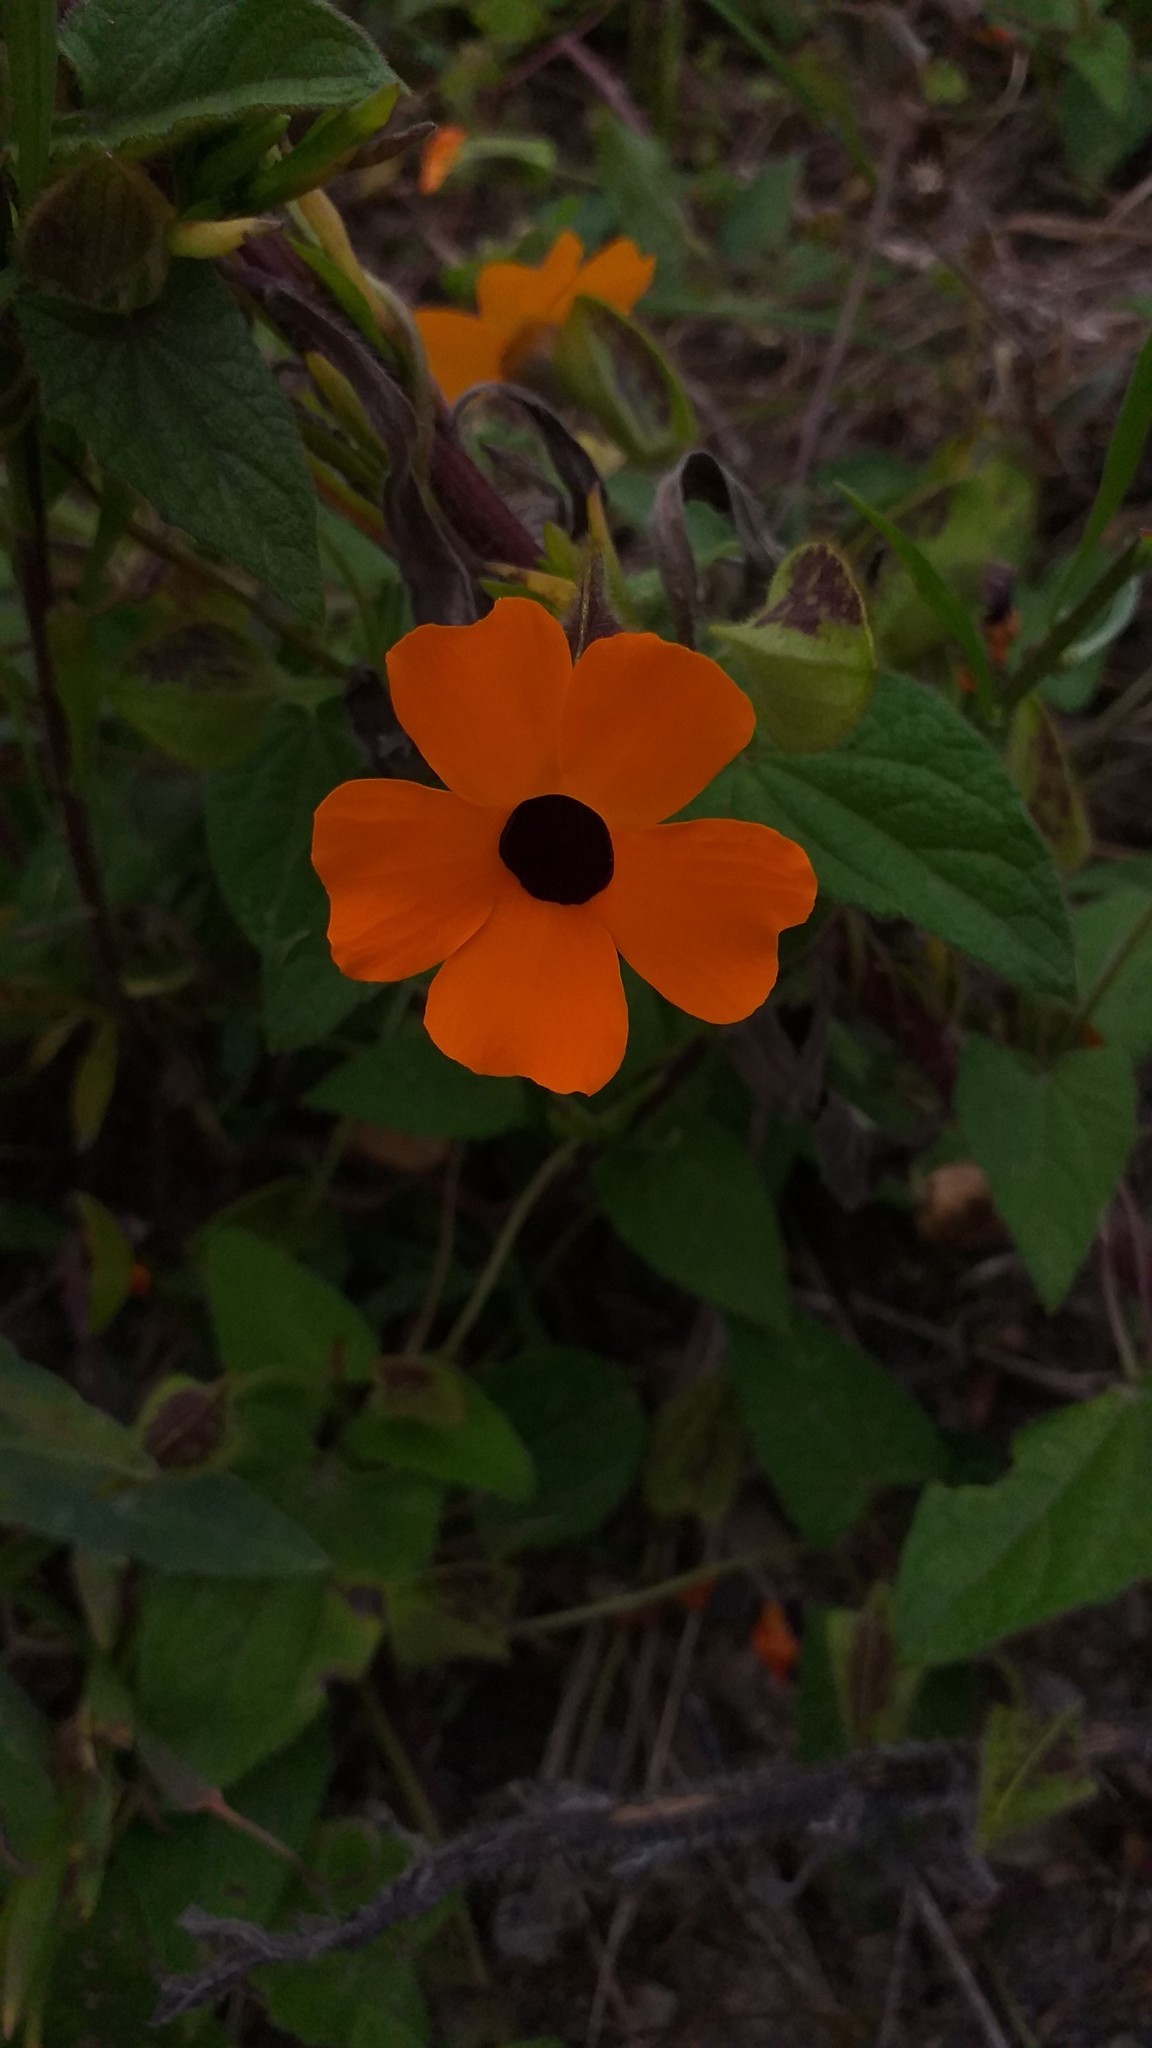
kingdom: Plantae
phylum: Tracheophyta
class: Magnoliopsida
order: Lamiales
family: Acanthaceae
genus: Thunbergia
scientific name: Thunbergia alata
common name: Blackeyed susan vine
